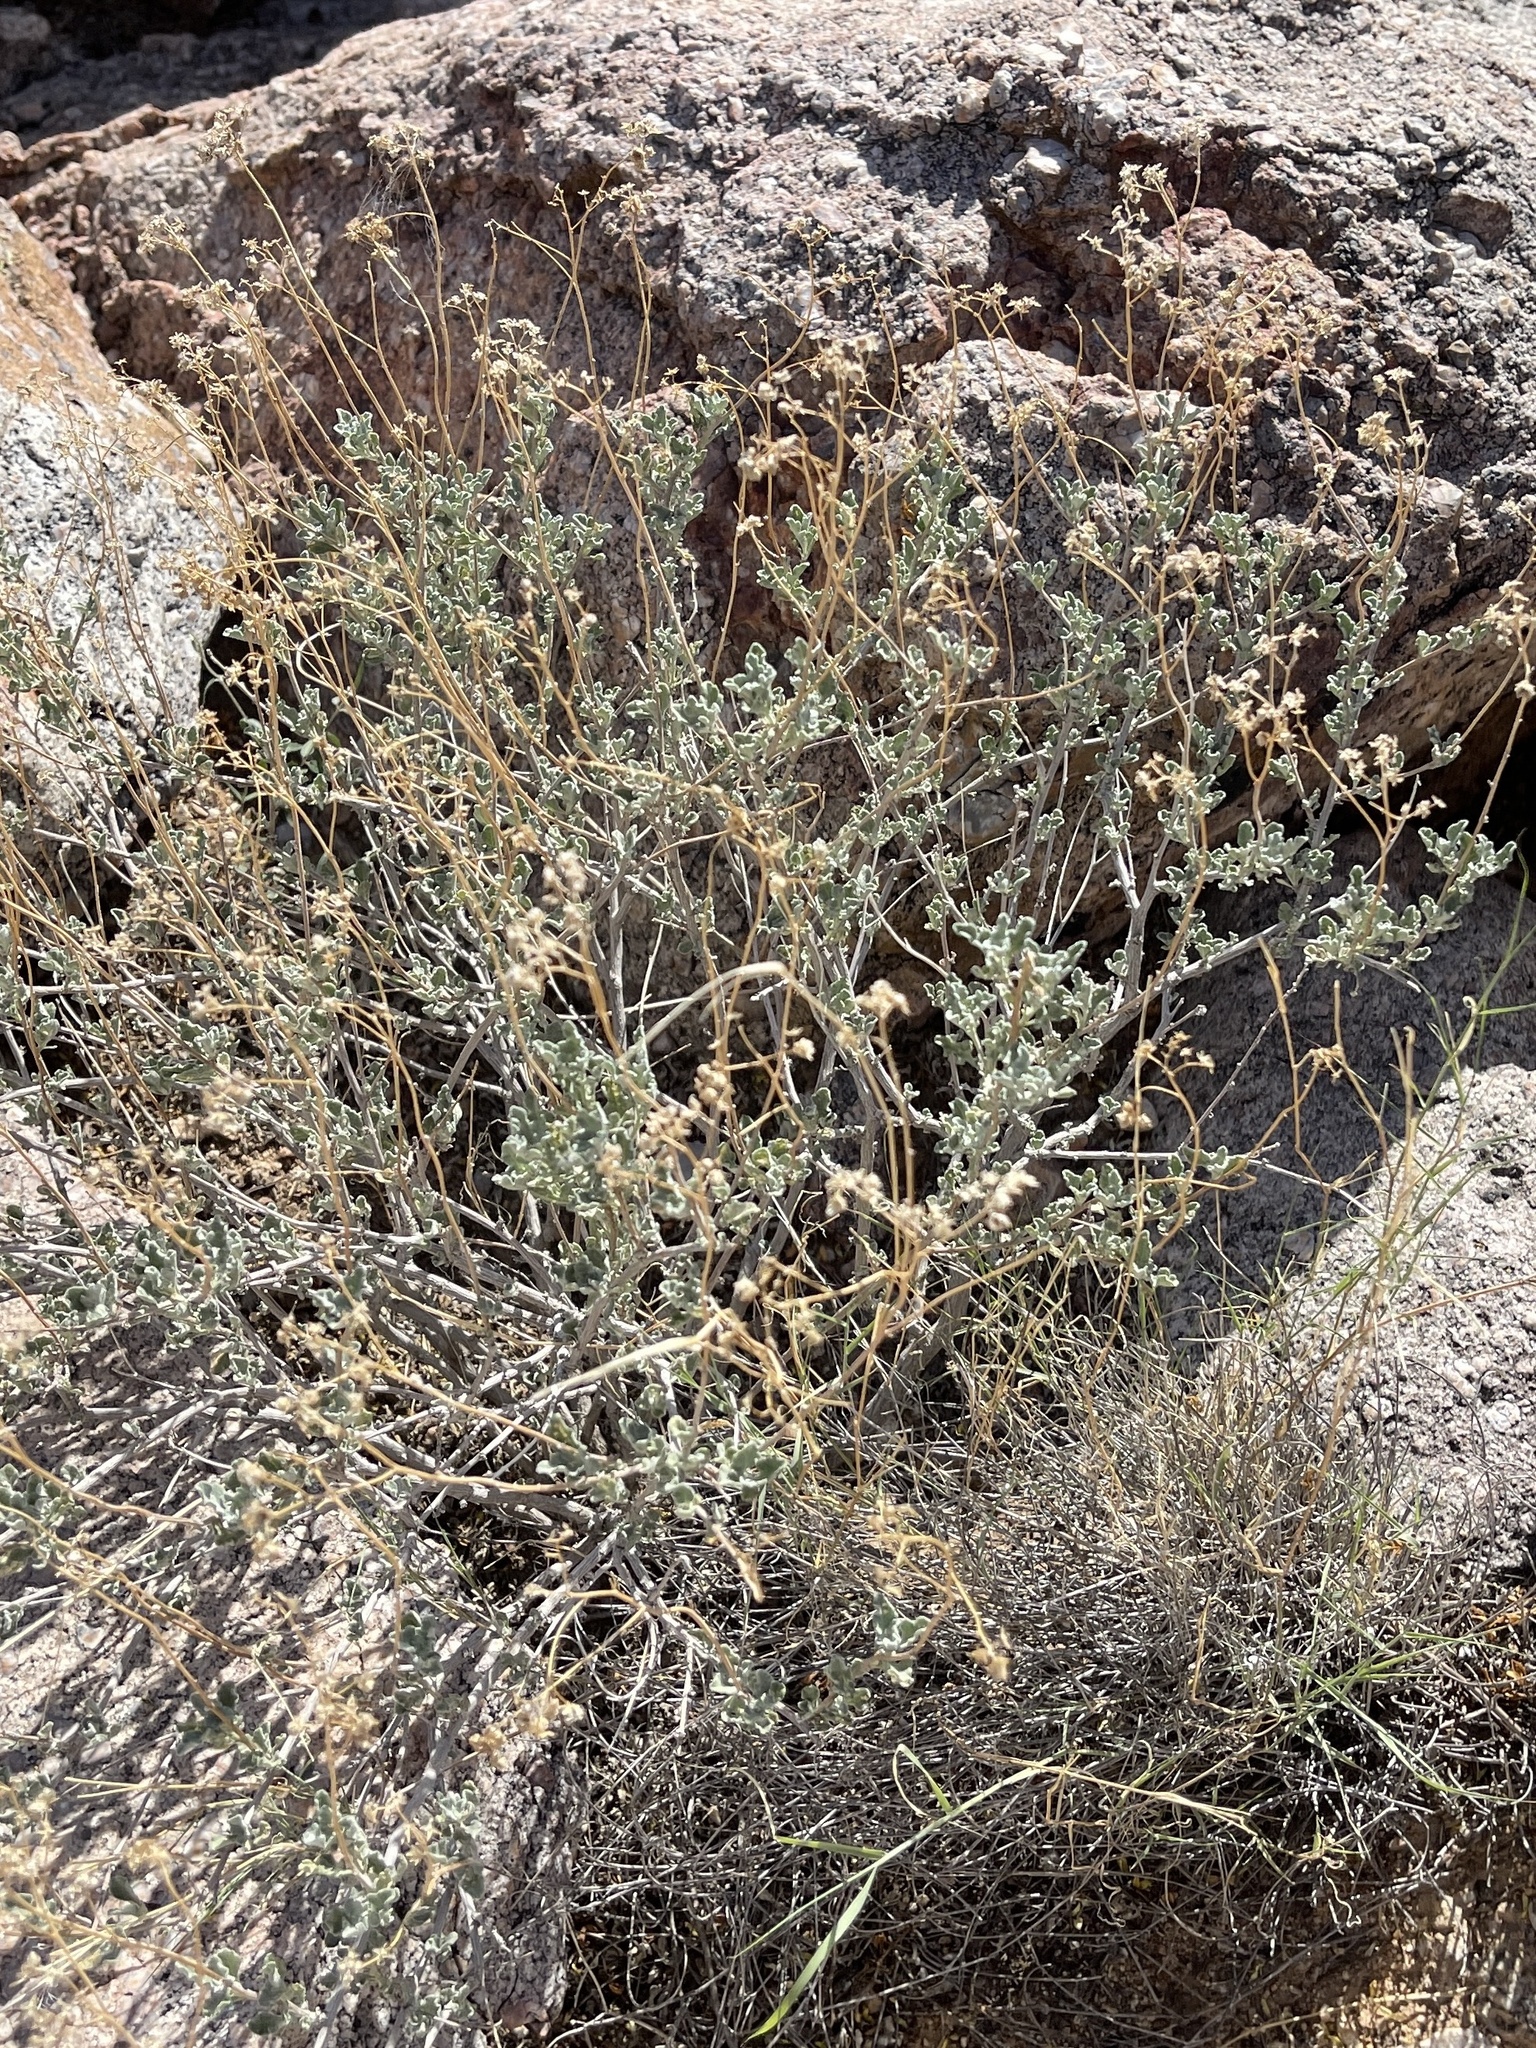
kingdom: Plantae
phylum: Tracheophyta
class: Magnoliopsida
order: Asterales
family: Asteraceae
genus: Parthenium
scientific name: Parthenium incanum
